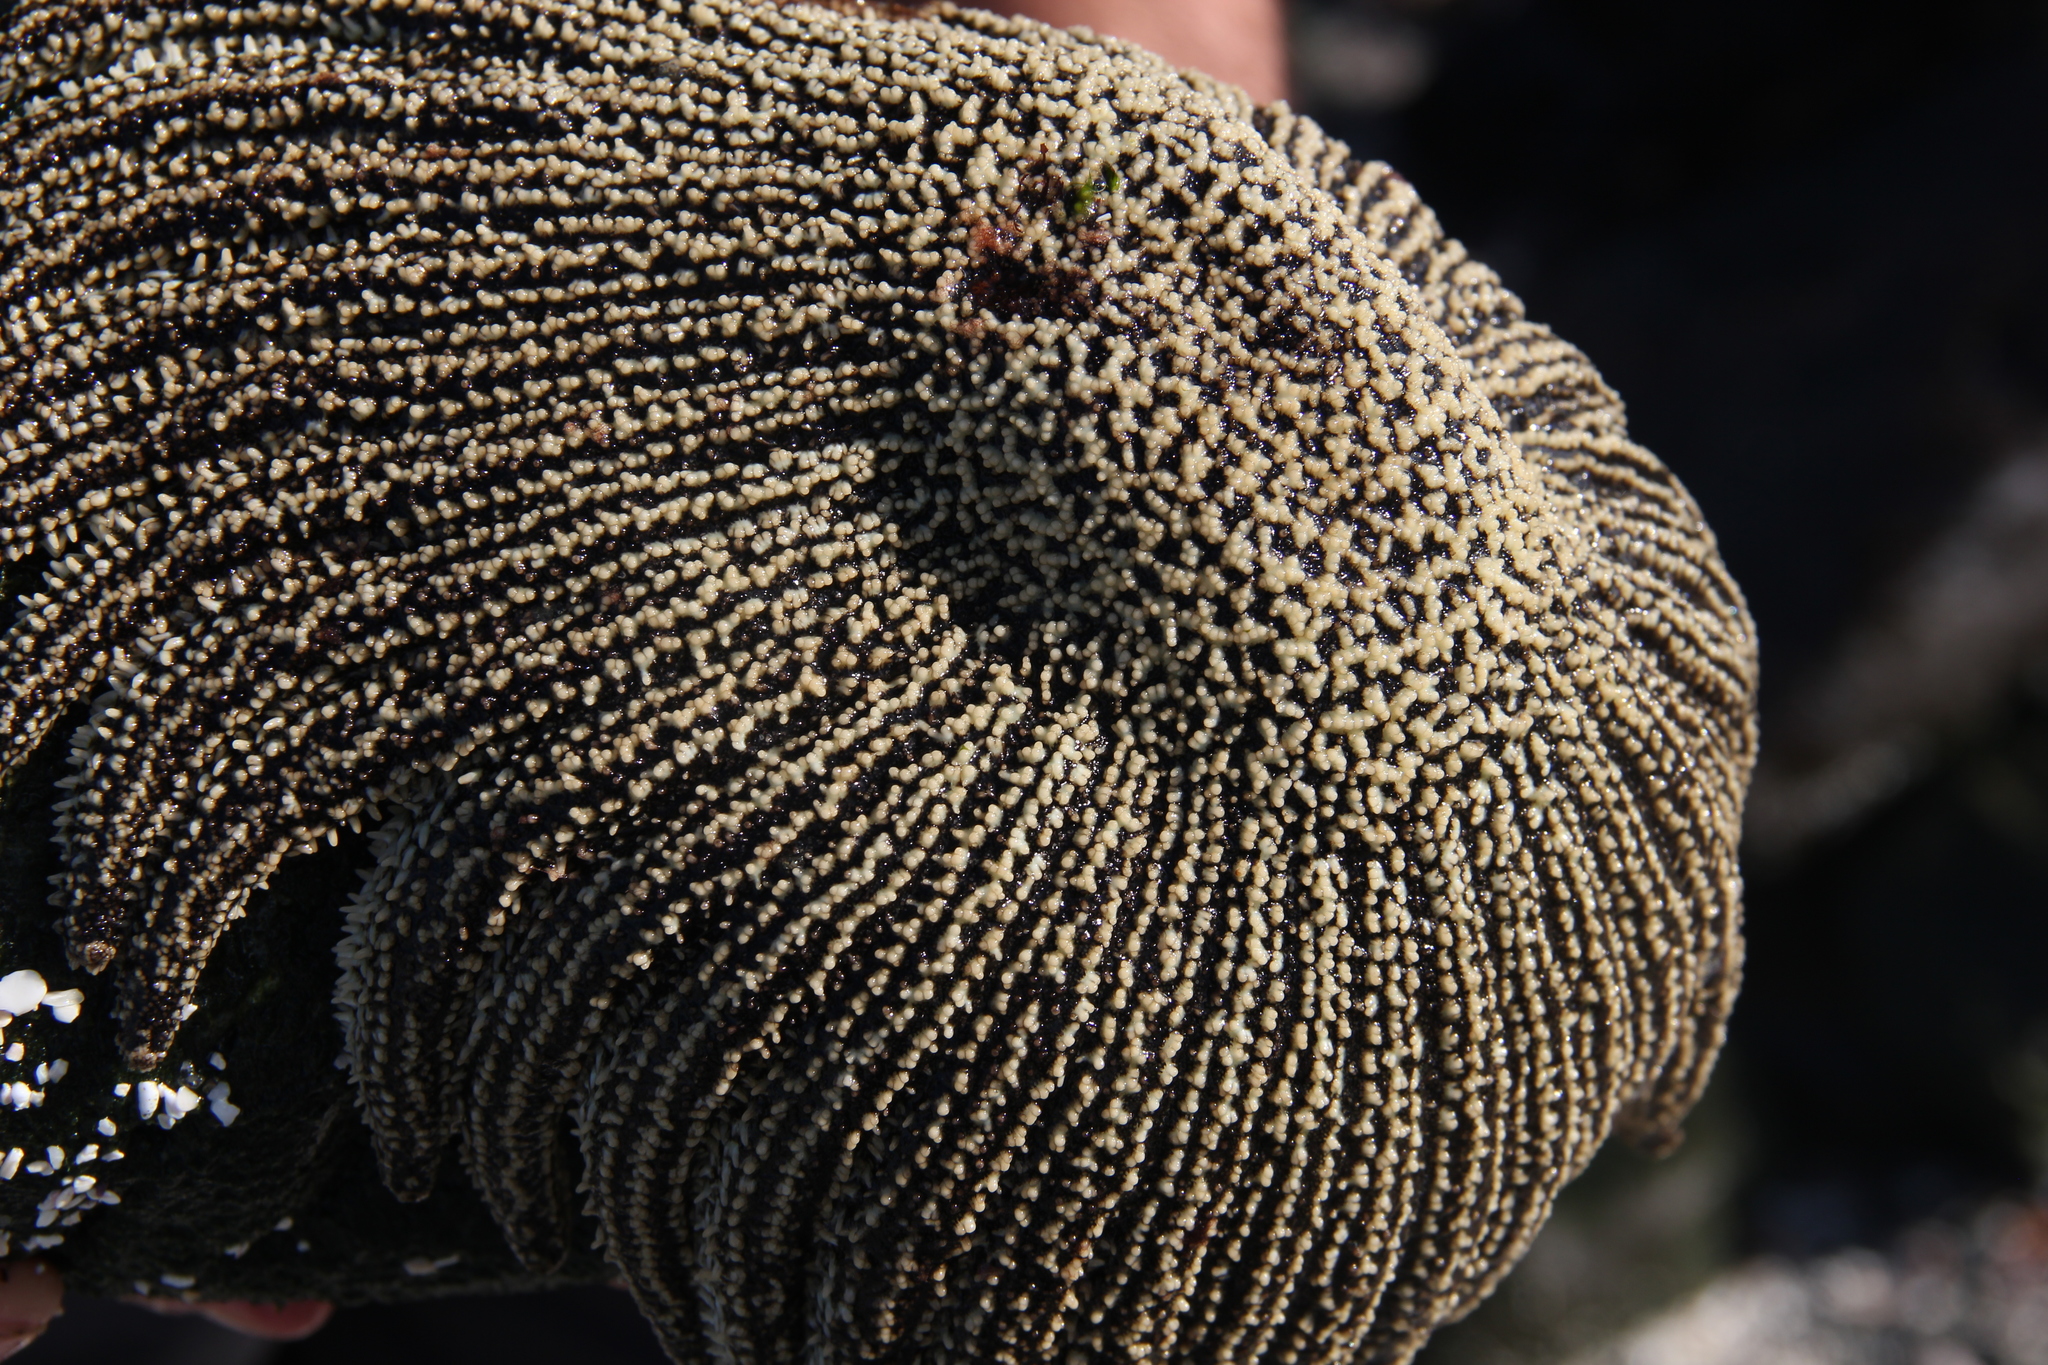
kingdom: Animalia
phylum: Echinodermata
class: Asteroidea
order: Forcipulatida
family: Heliasteridae
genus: Heliaster
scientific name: Heliaster helianthus
